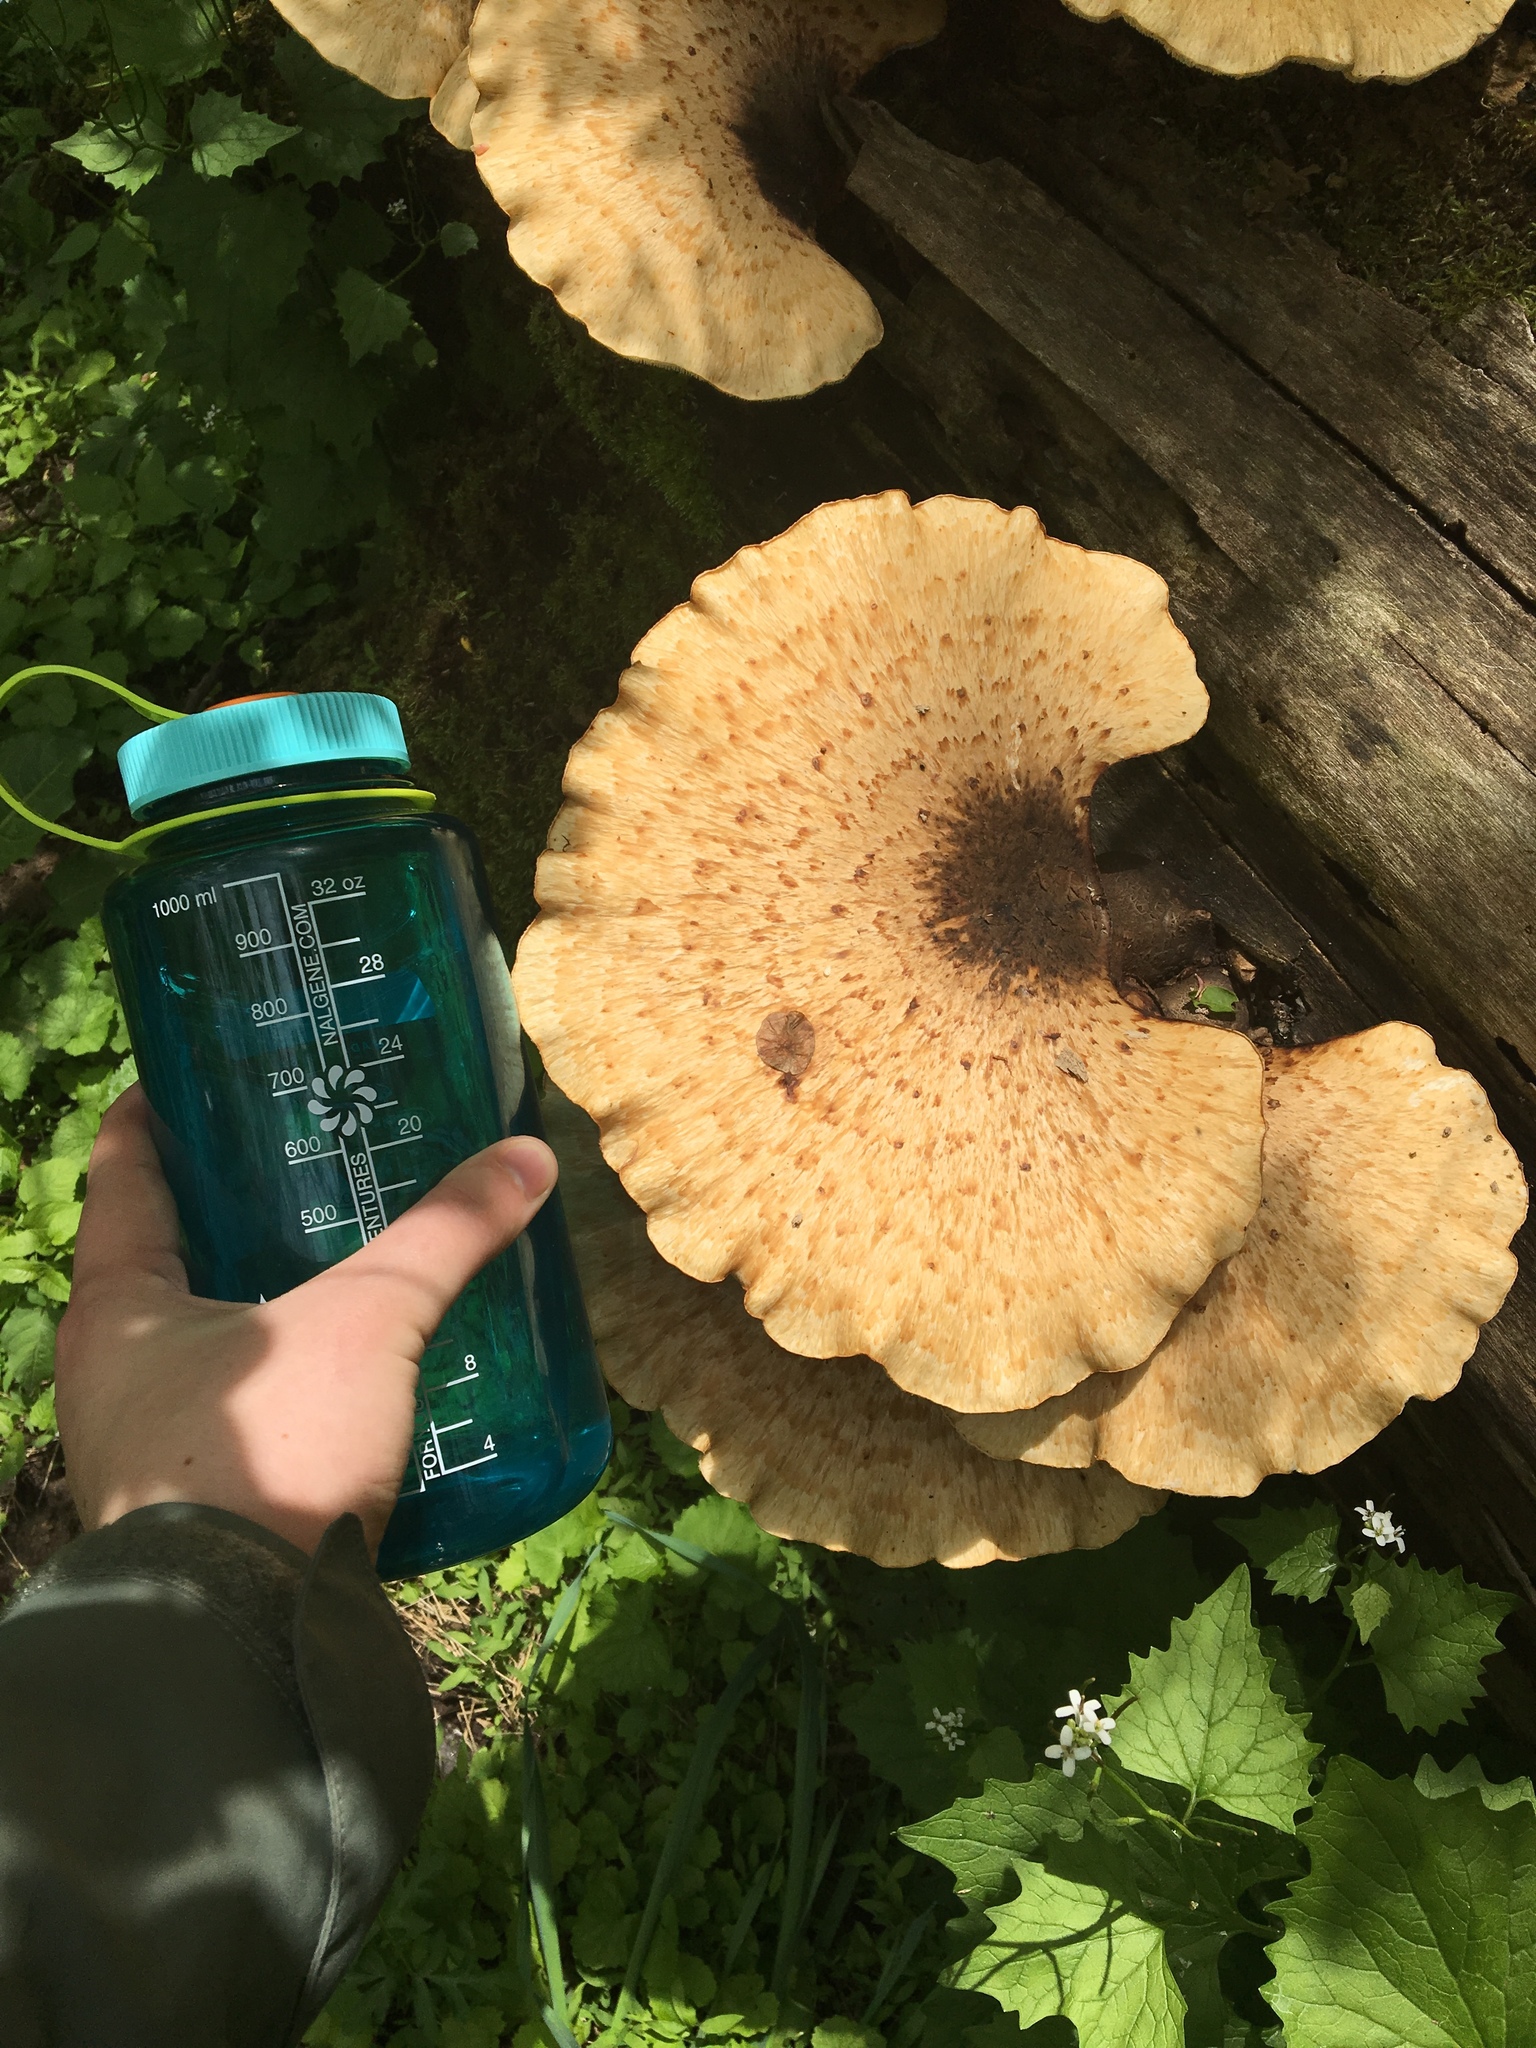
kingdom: Fungi
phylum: Basidiomycota
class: Agaricomycetes
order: Polyporales
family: Polyporaceae
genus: Cerioporus
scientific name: Cerioporus squamosus
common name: Dryad's saddle
